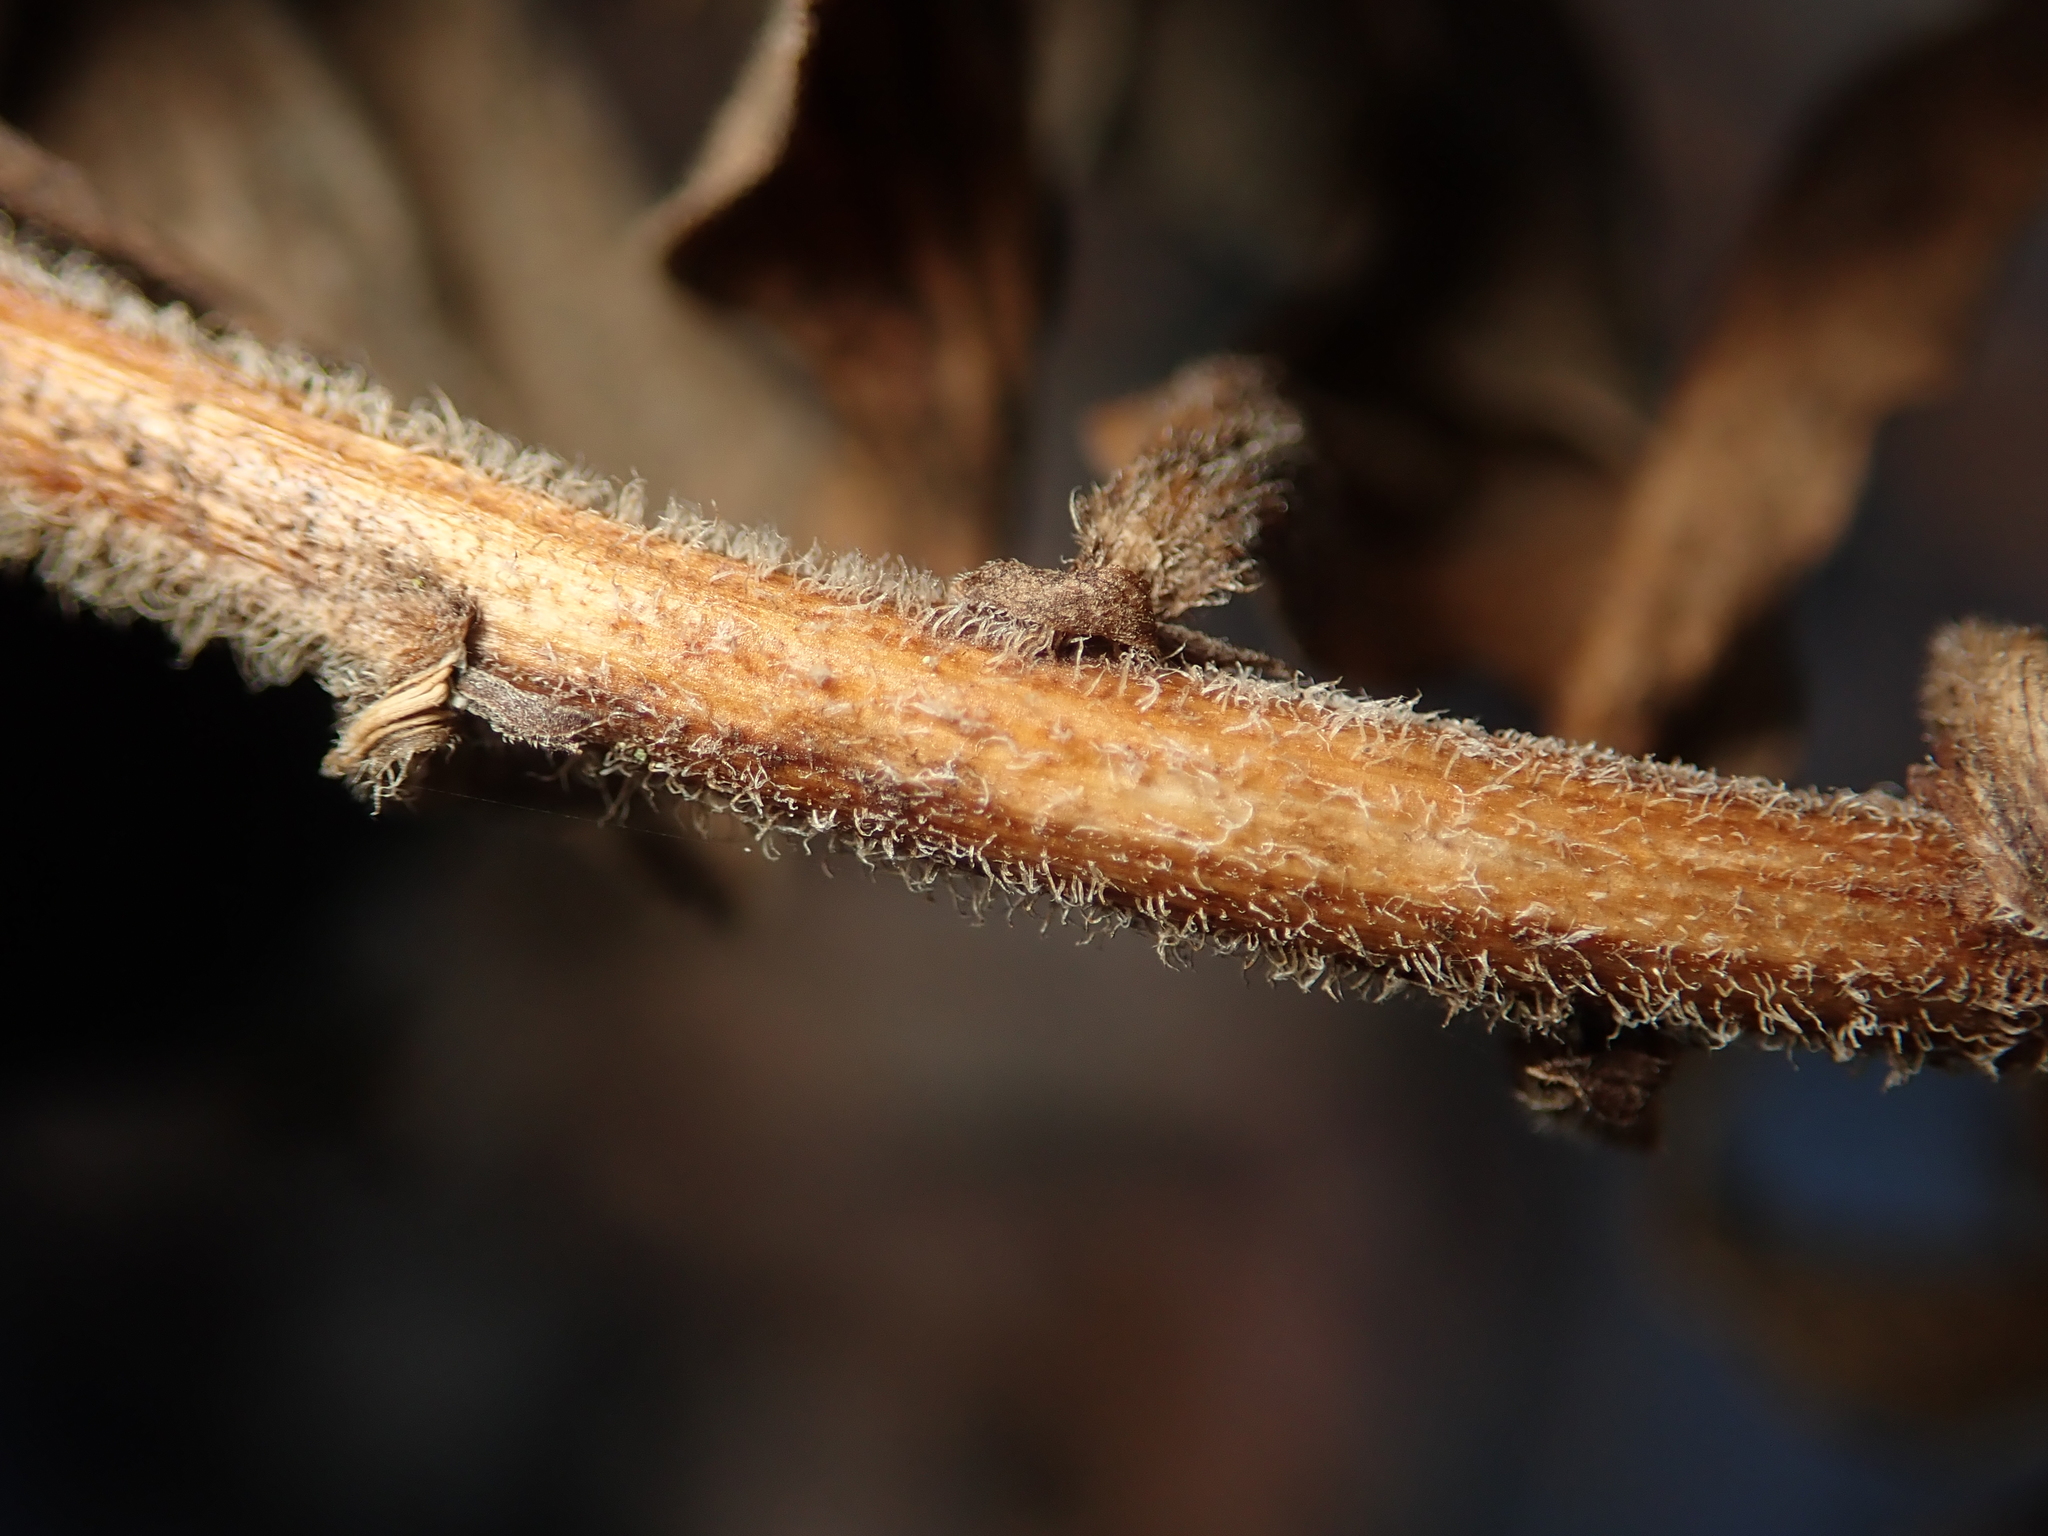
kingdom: Plantae
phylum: Tracheophyta
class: Magnoliopsida
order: Asterales
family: Asteraceae
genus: Solidago
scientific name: Solidago canadensis
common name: Canada goldenrod
